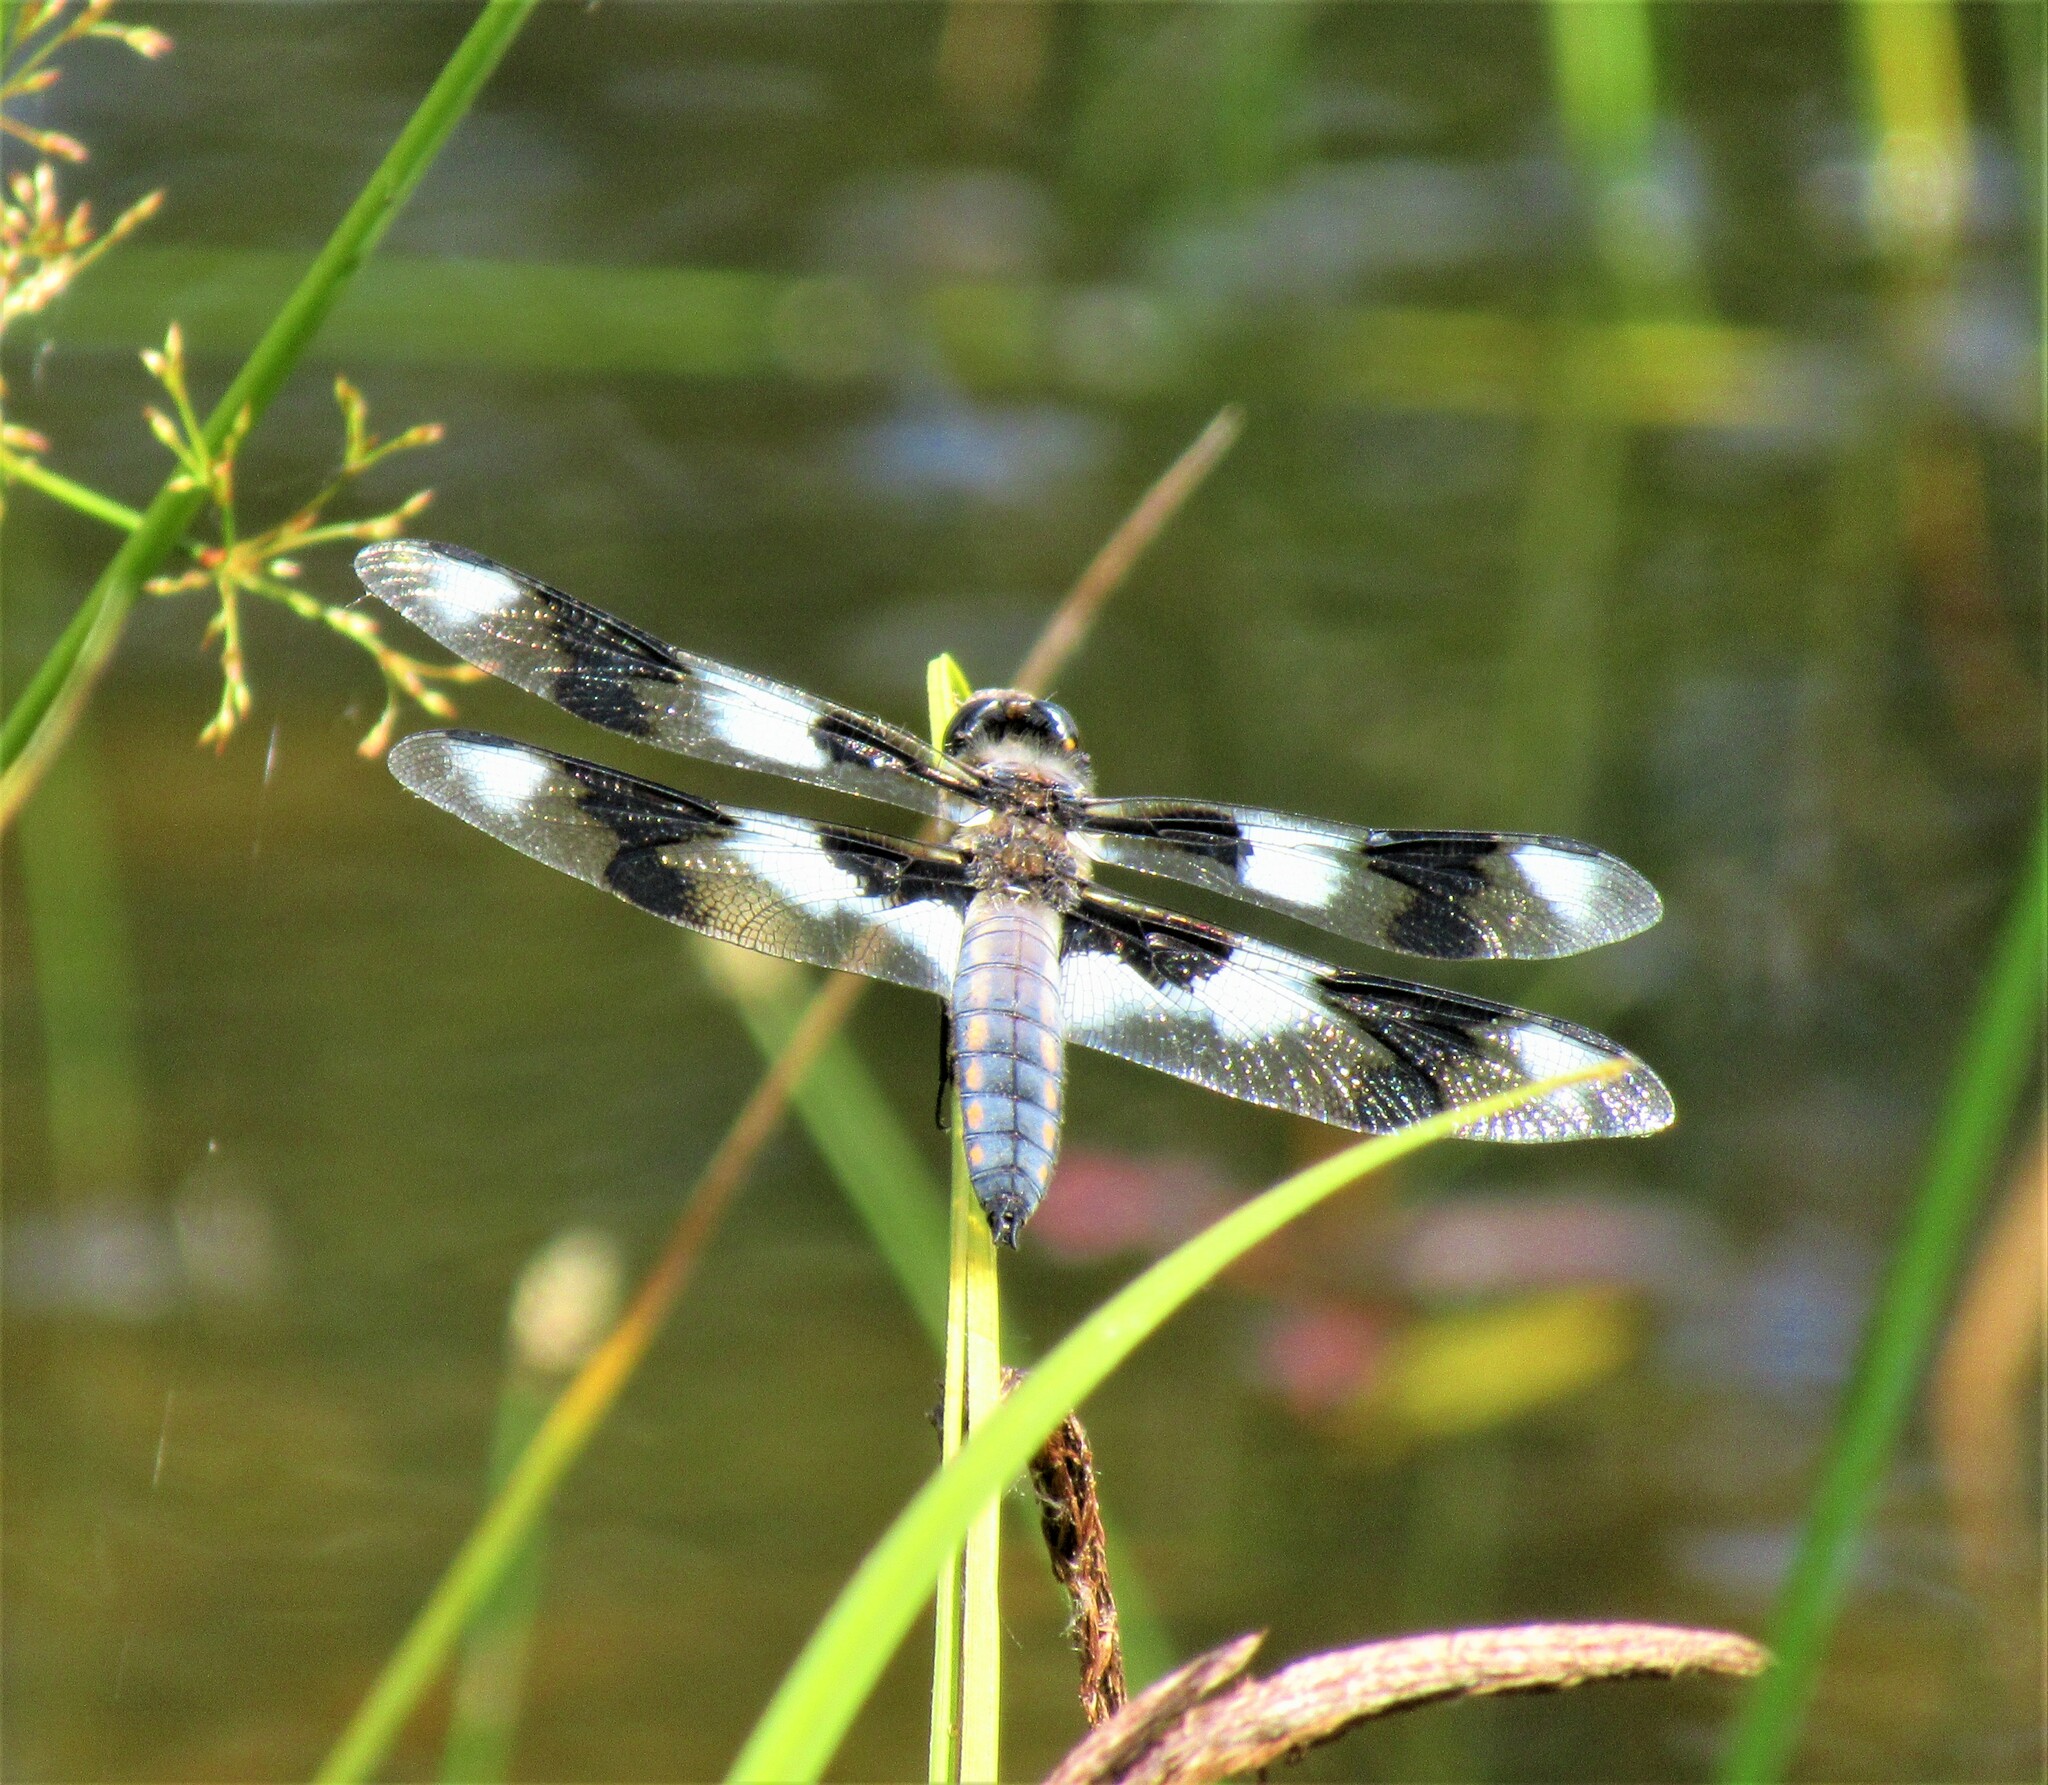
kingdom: Animalia
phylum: Arthropoda
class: Insecta
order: Odonata
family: Libellulidae
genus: Libellula
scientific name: Libellula forensis
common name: Eight-spotted skimmer
